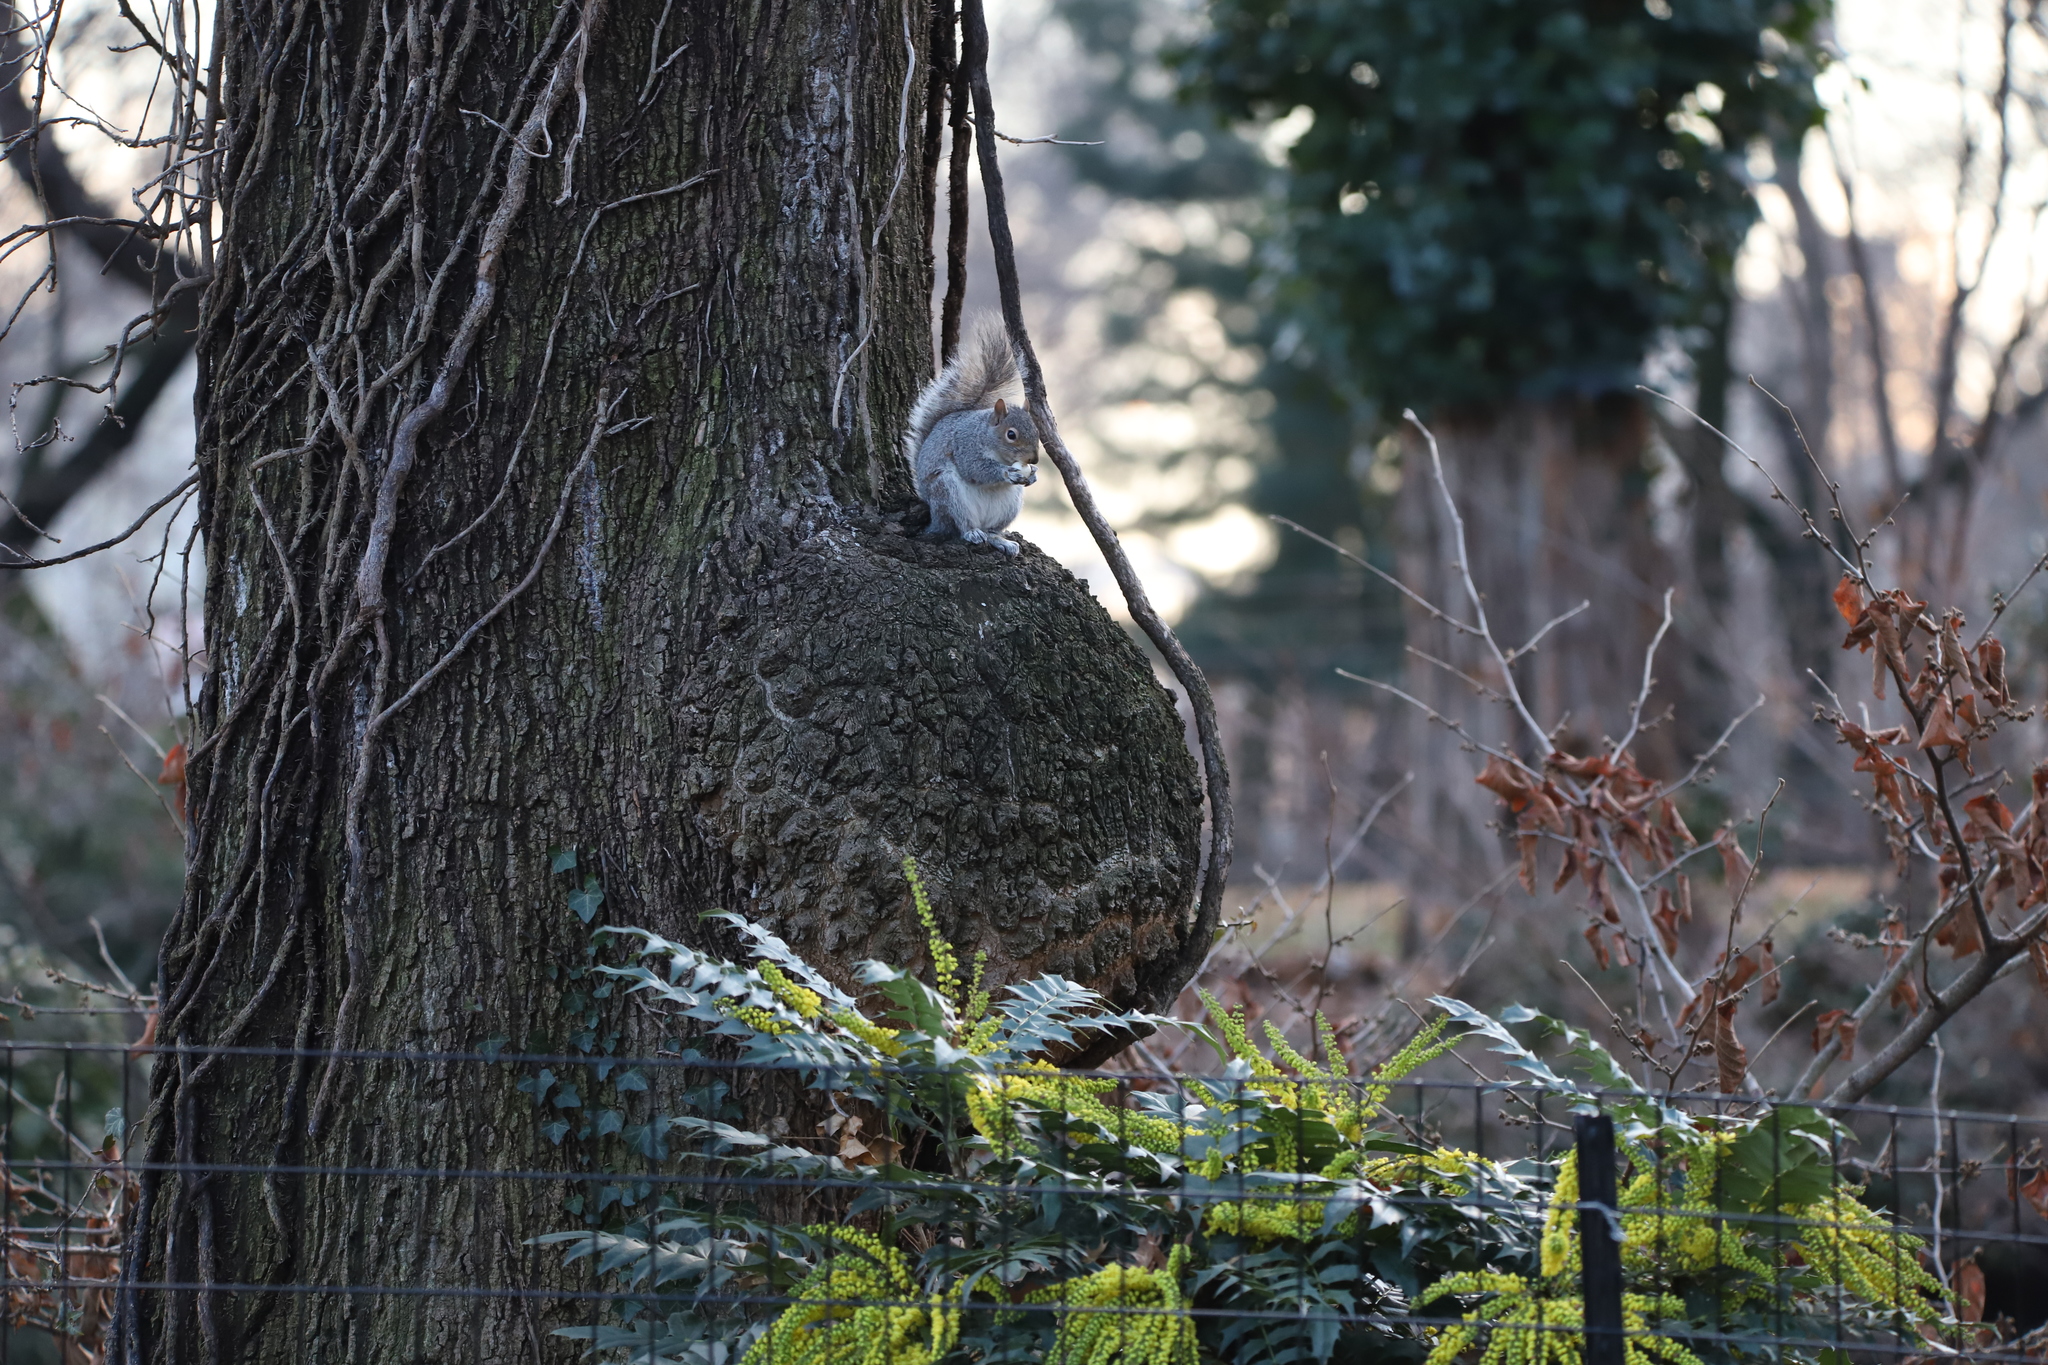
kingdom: Bacteria
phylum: Proteobacteria
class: Alphaproteobacteria
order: Rhizobiales
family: Rhizobiaceae
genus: Rhizobium
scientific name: Rhizobium Agrobacterium radiobacter
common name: Bacterial crown gall
